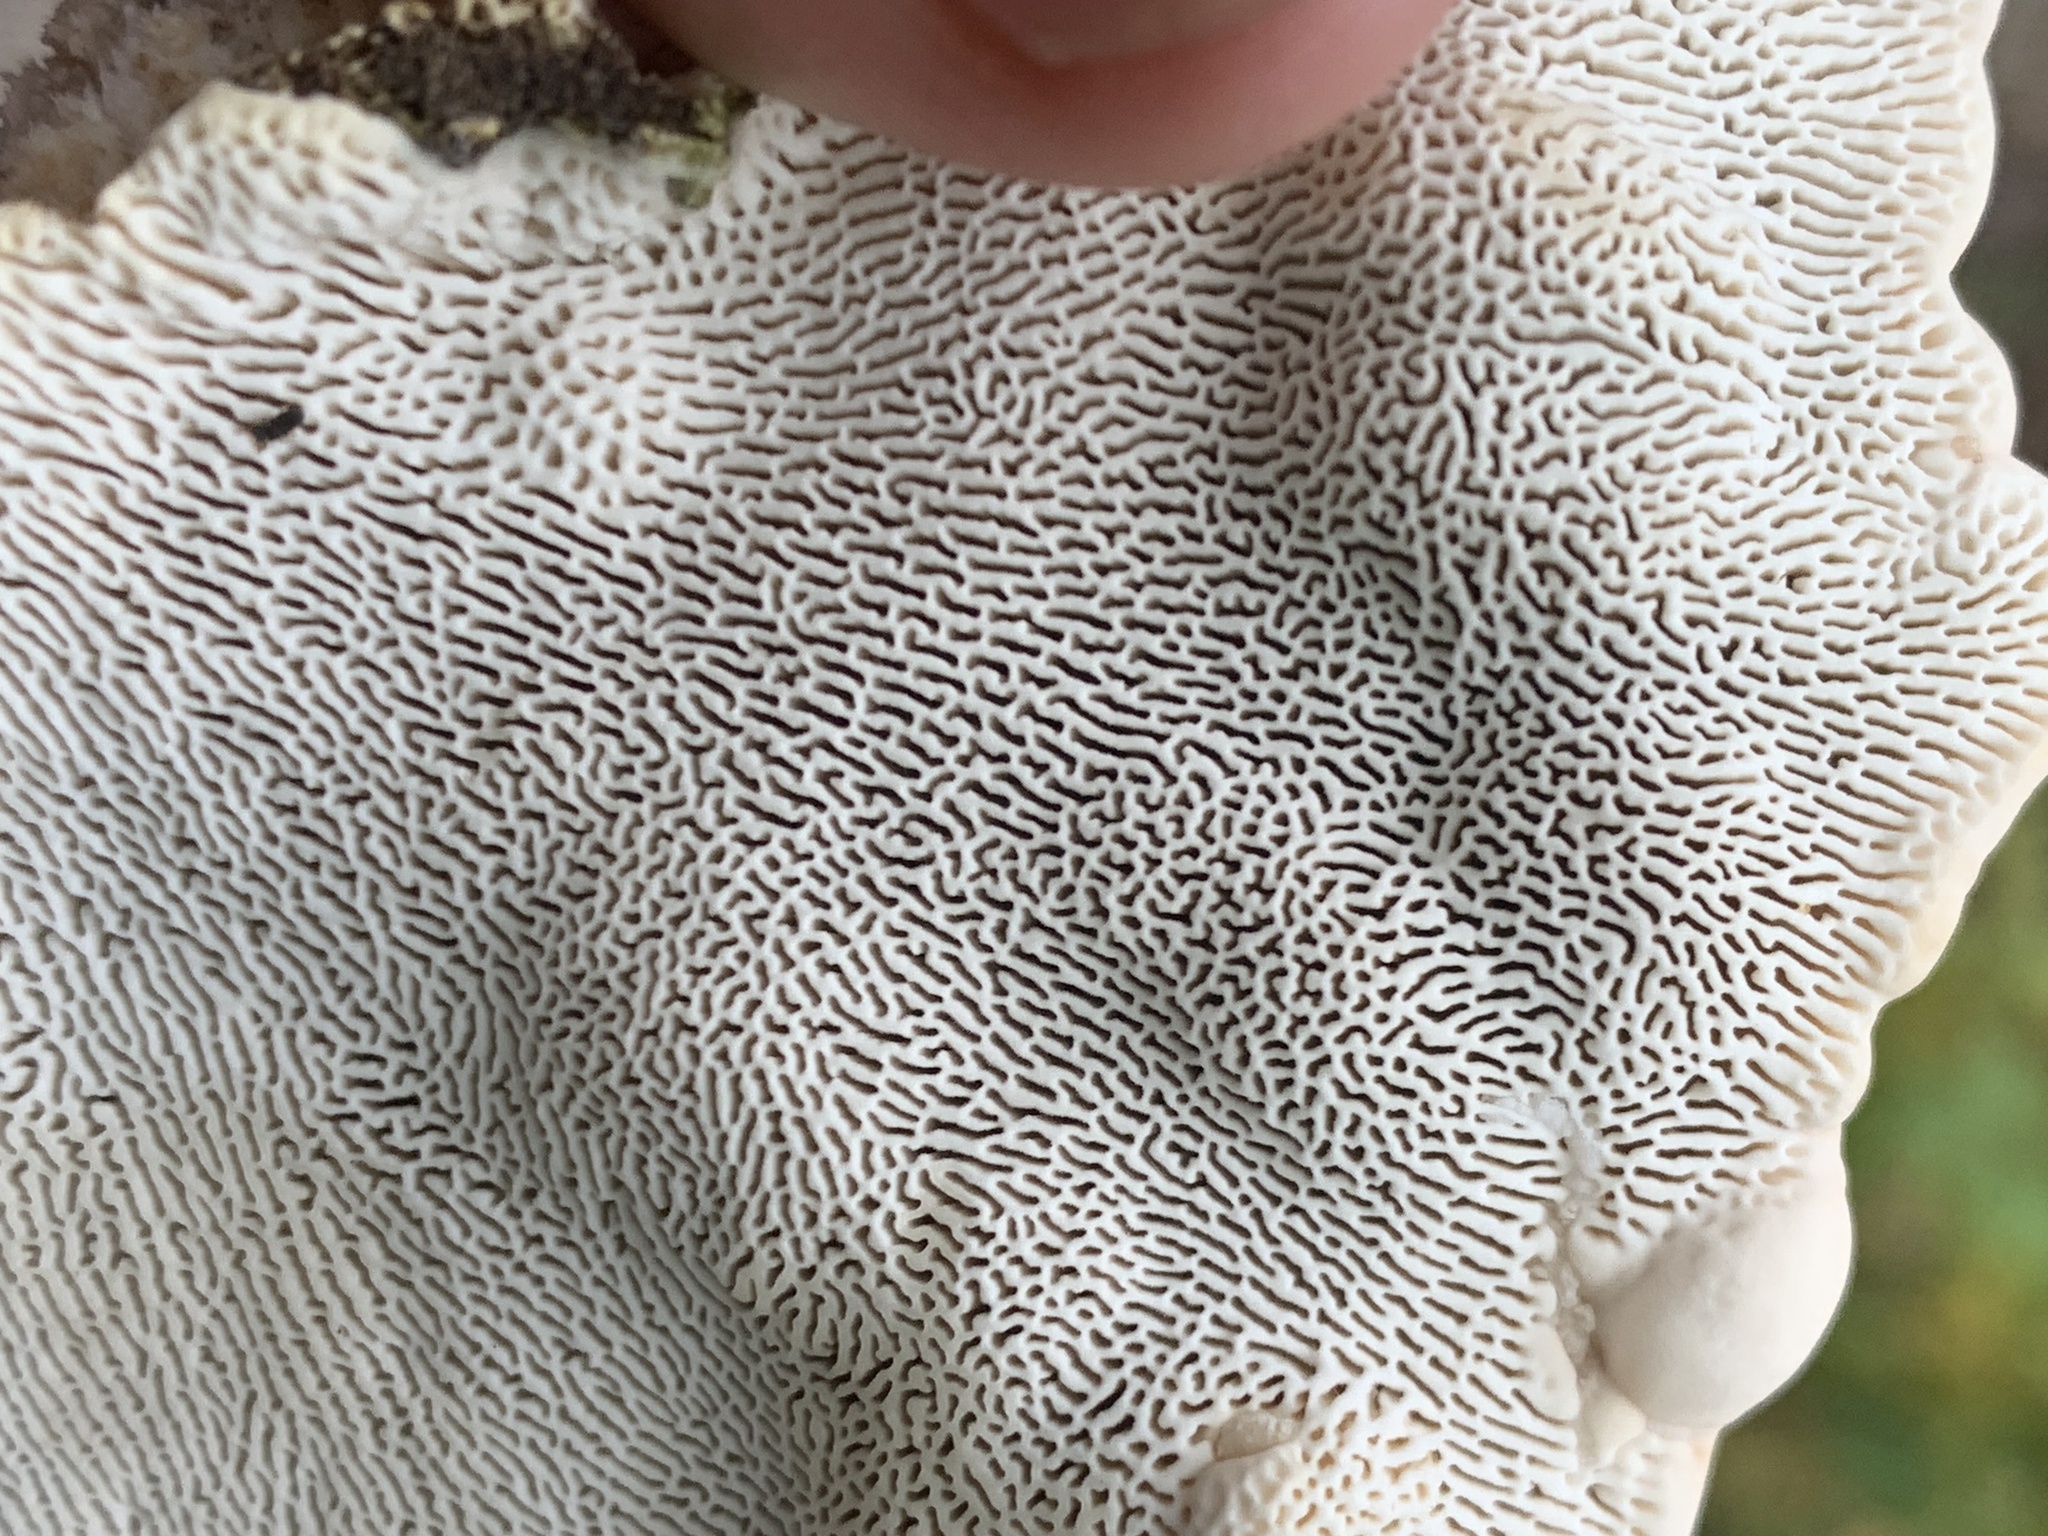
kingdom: Fungi
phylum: Basidiomycota
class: Agaricomycetes
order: Polyporales
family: Polyporaceae
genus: Trametes
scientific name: Trametes gibbosa
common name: Lumpy bracket
